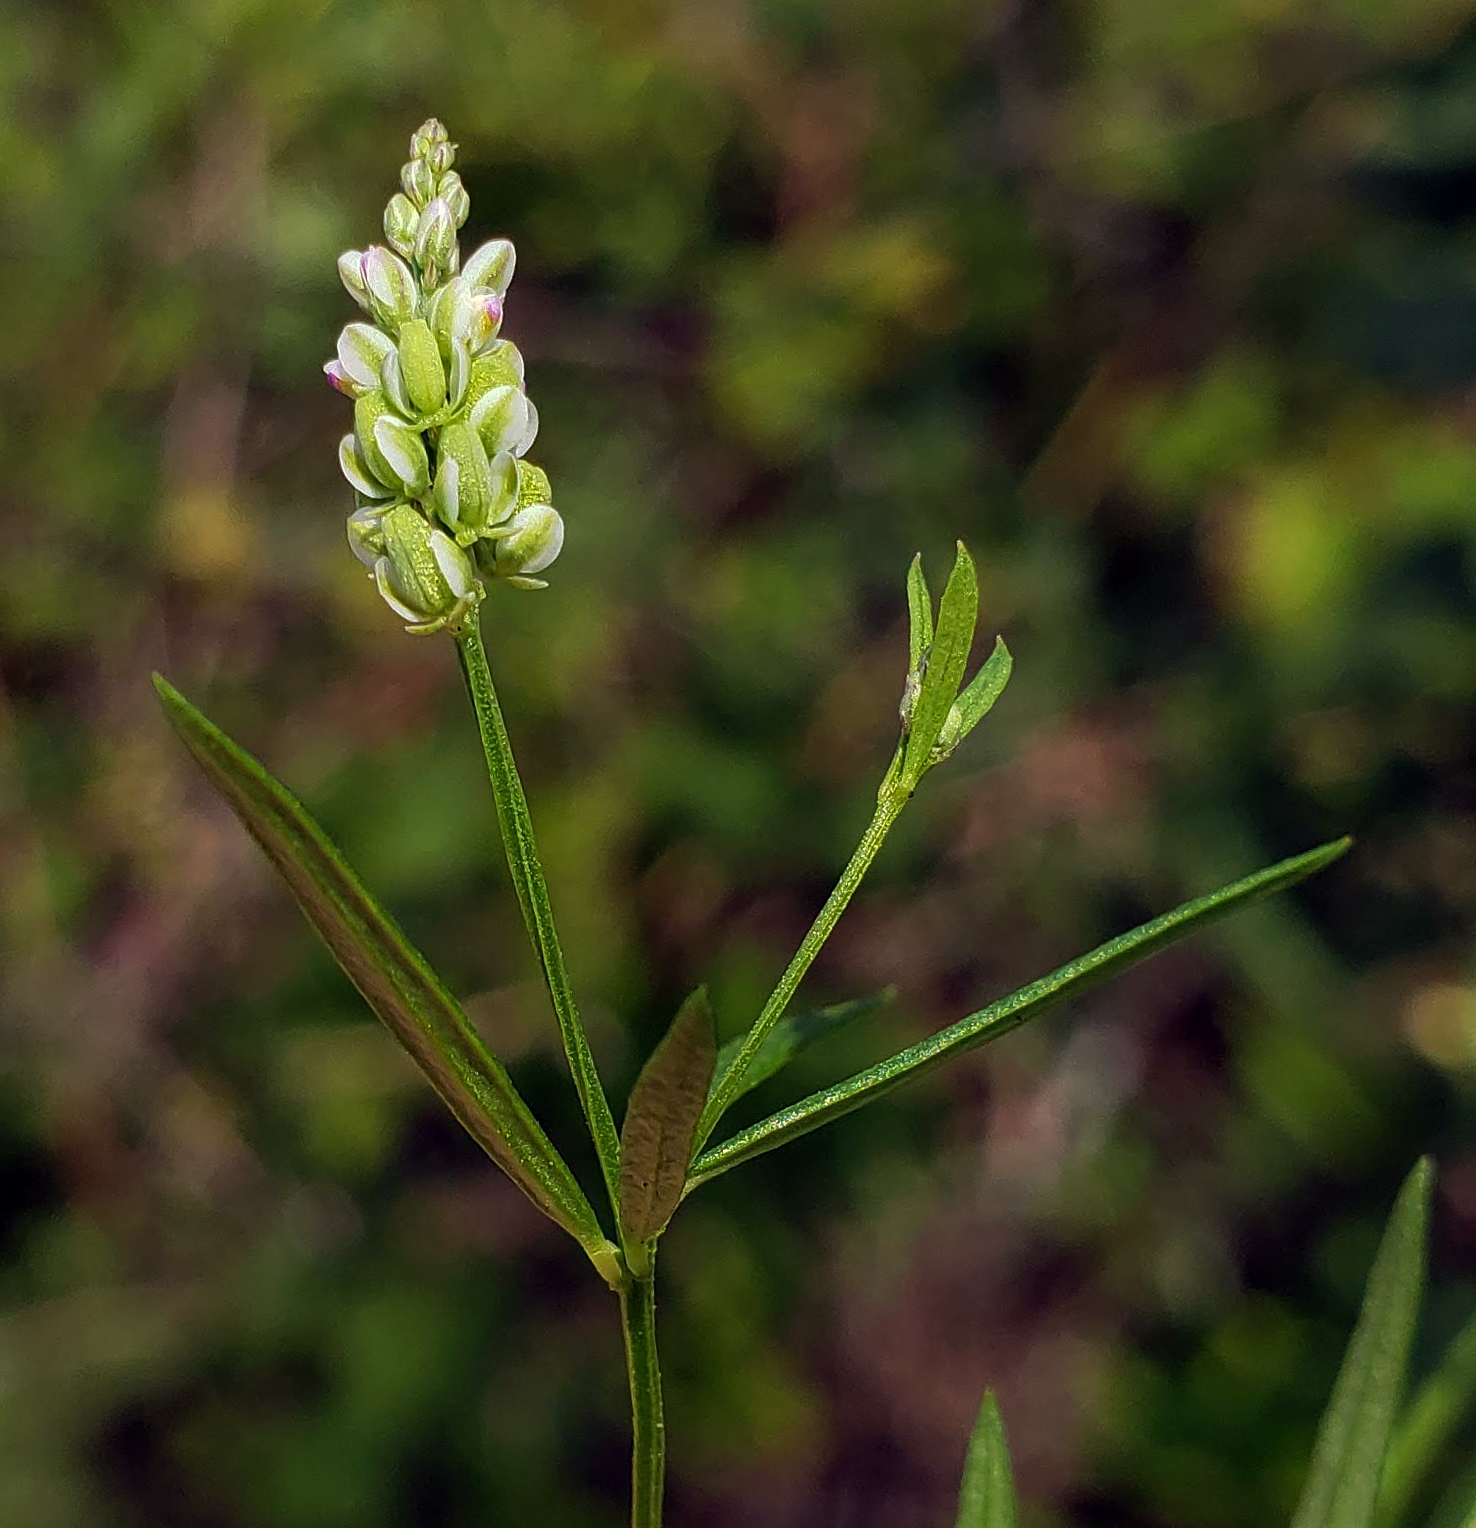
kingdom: Plantae
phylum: Tracheophyta
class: Magnoliopsida
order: Fabales
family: Polygalaceae
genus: Polygala
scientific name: Polygala verticillata
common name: Whorl milkwort
